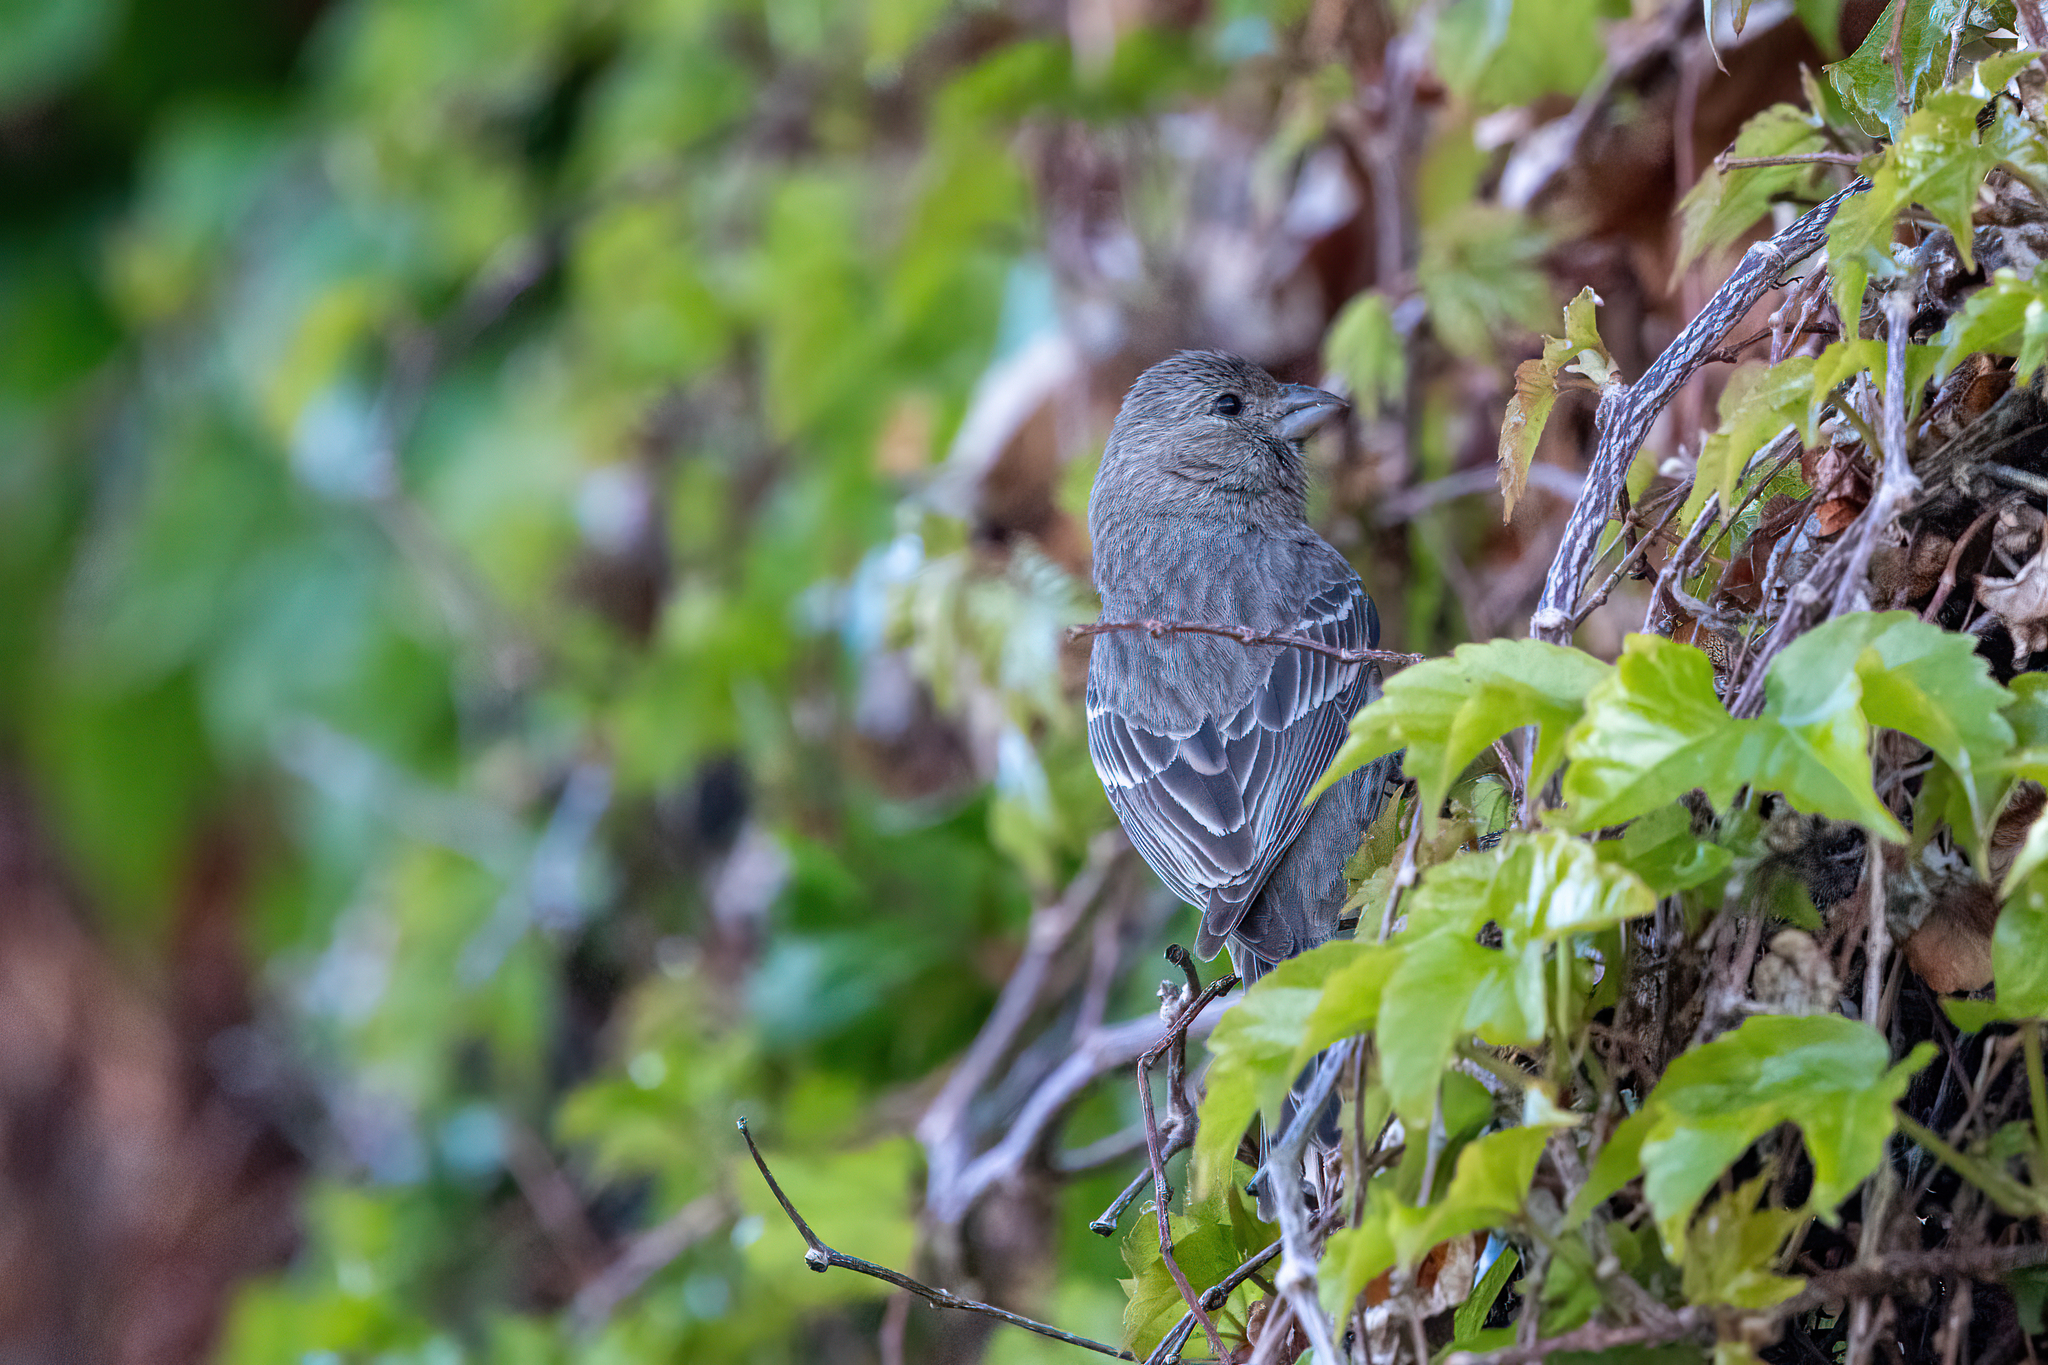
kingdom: Animalia
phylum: Chordata
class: Aves
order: Passeriformes
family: Fringillidae
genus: Haemorhous
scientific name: Haemorhous mexicanus
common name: House finch
